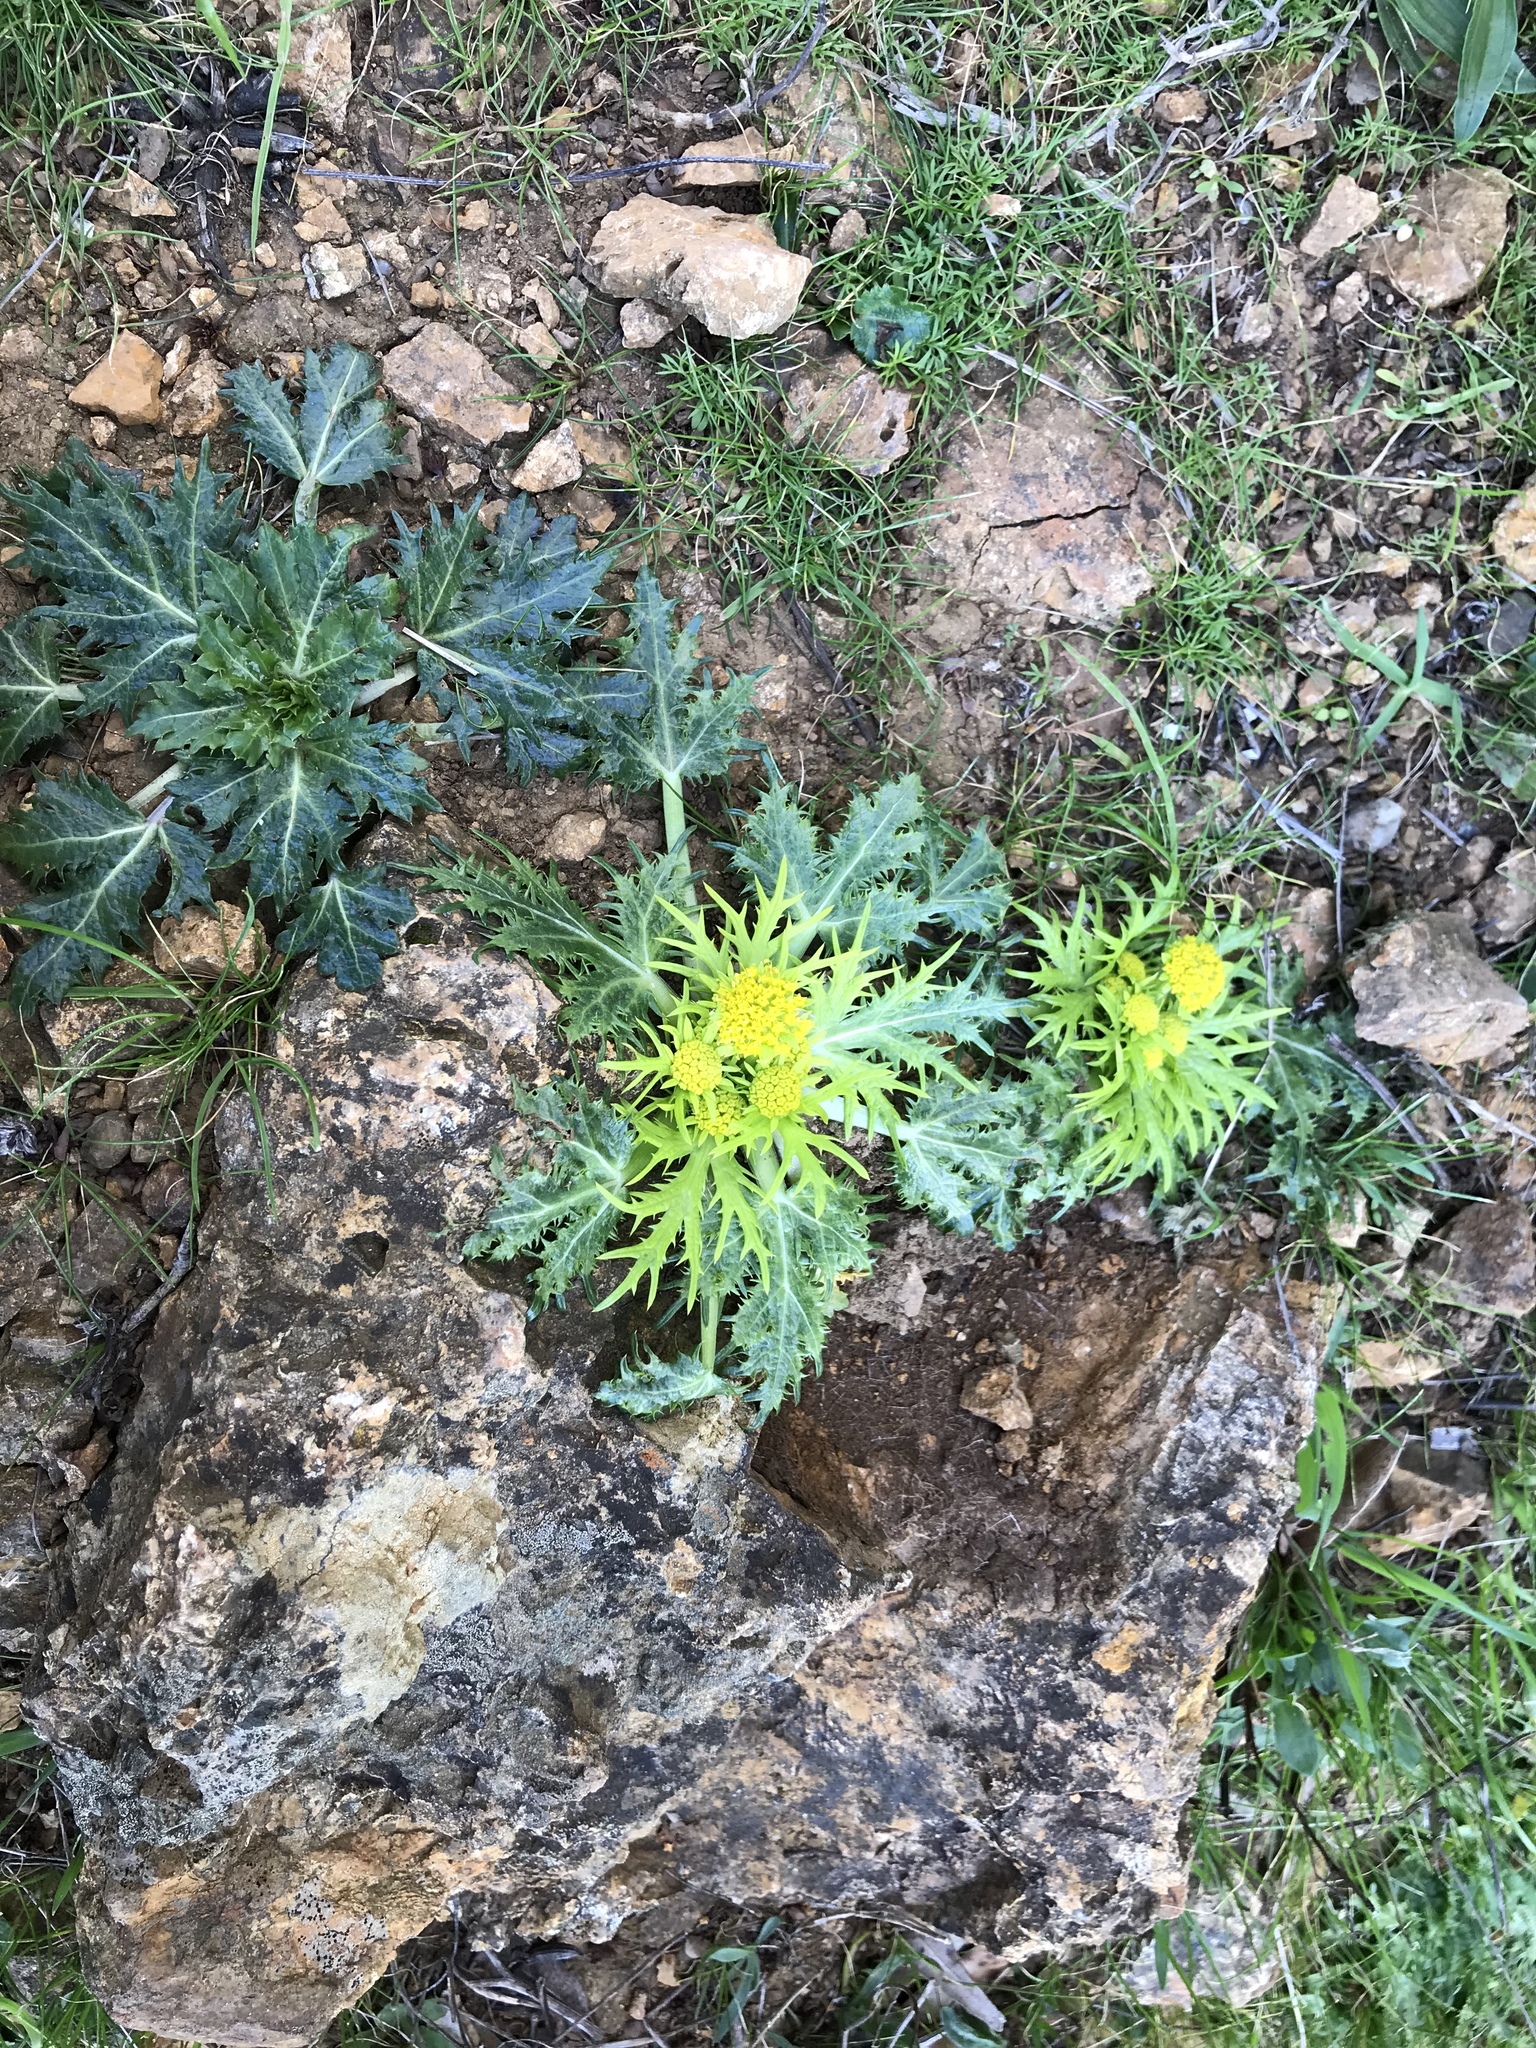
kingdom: Plantae
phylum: Tracheophyta
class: Magnoliopsida
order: Apiales
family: Apiaceae
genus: Sanicula
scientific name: Sanicula arctopoides
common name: Footsteps-of-spring
